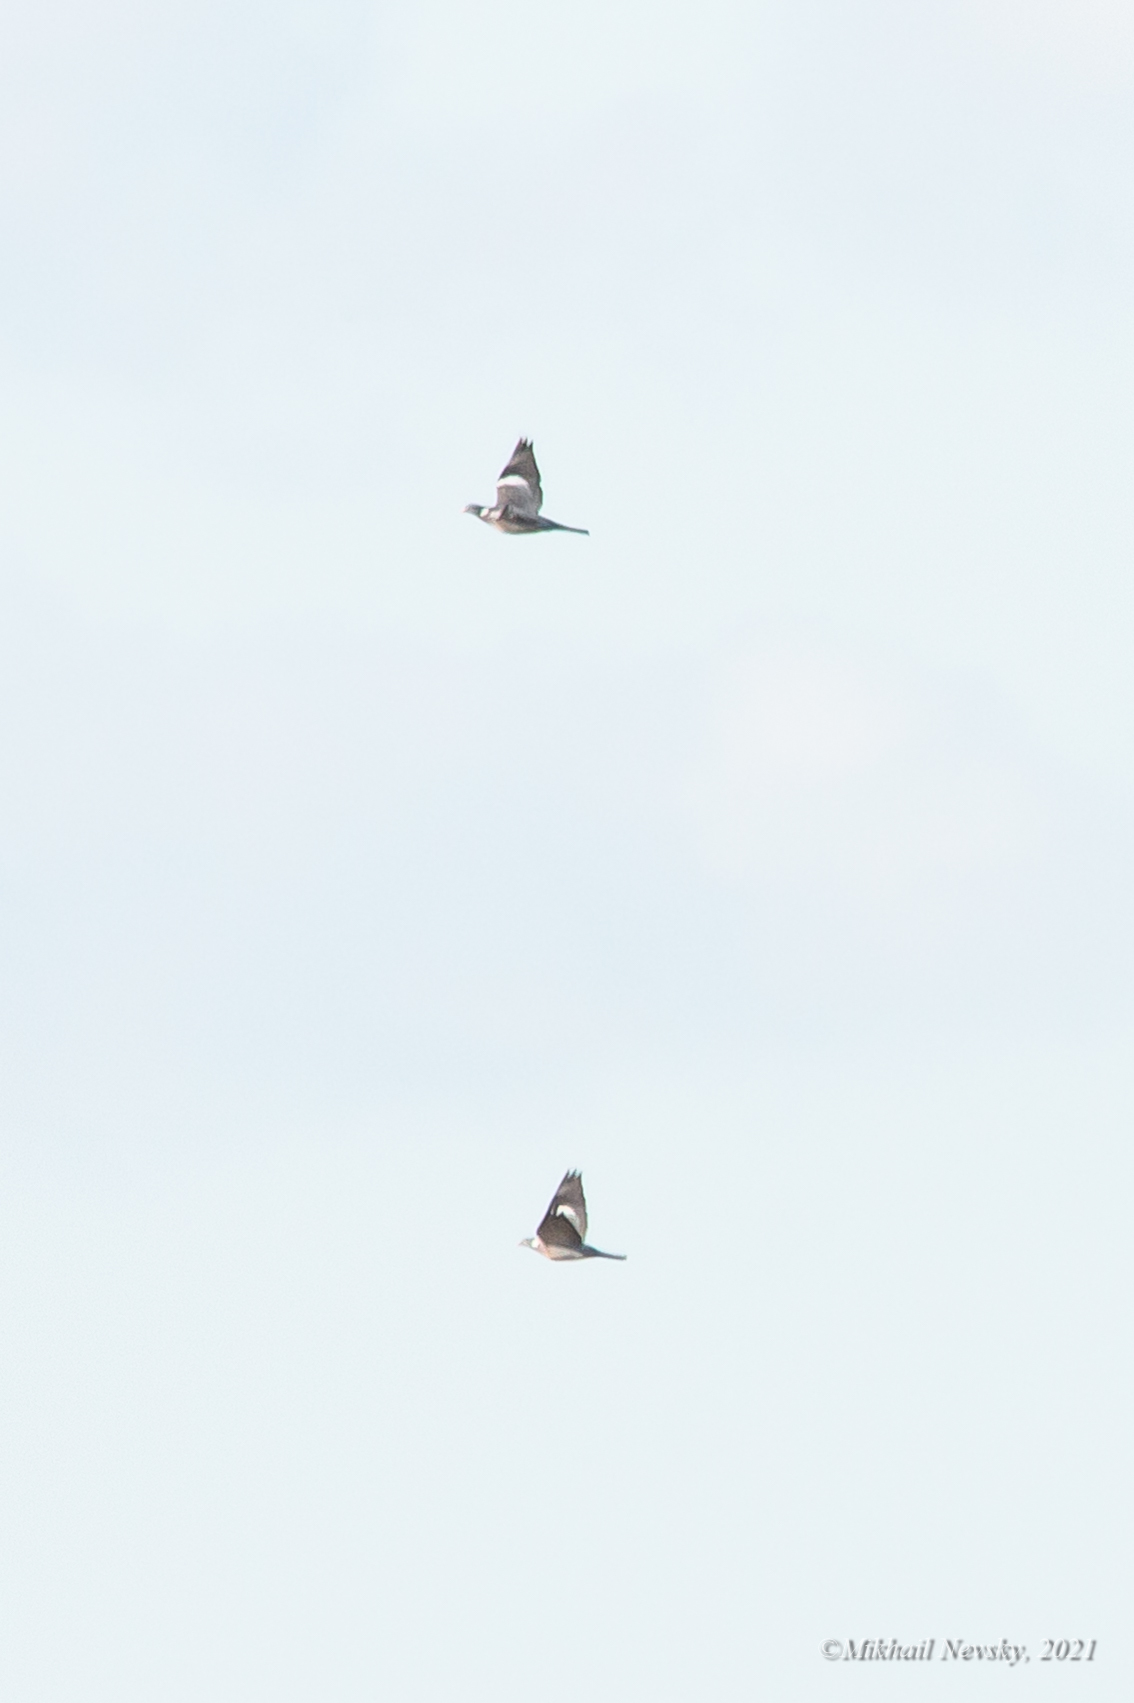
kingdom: Animalia
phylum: Chordata
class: Aves
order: Columbiformes
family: Columbidae
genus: Columba
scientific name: Columba palumbus
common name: Common wood pigeon
